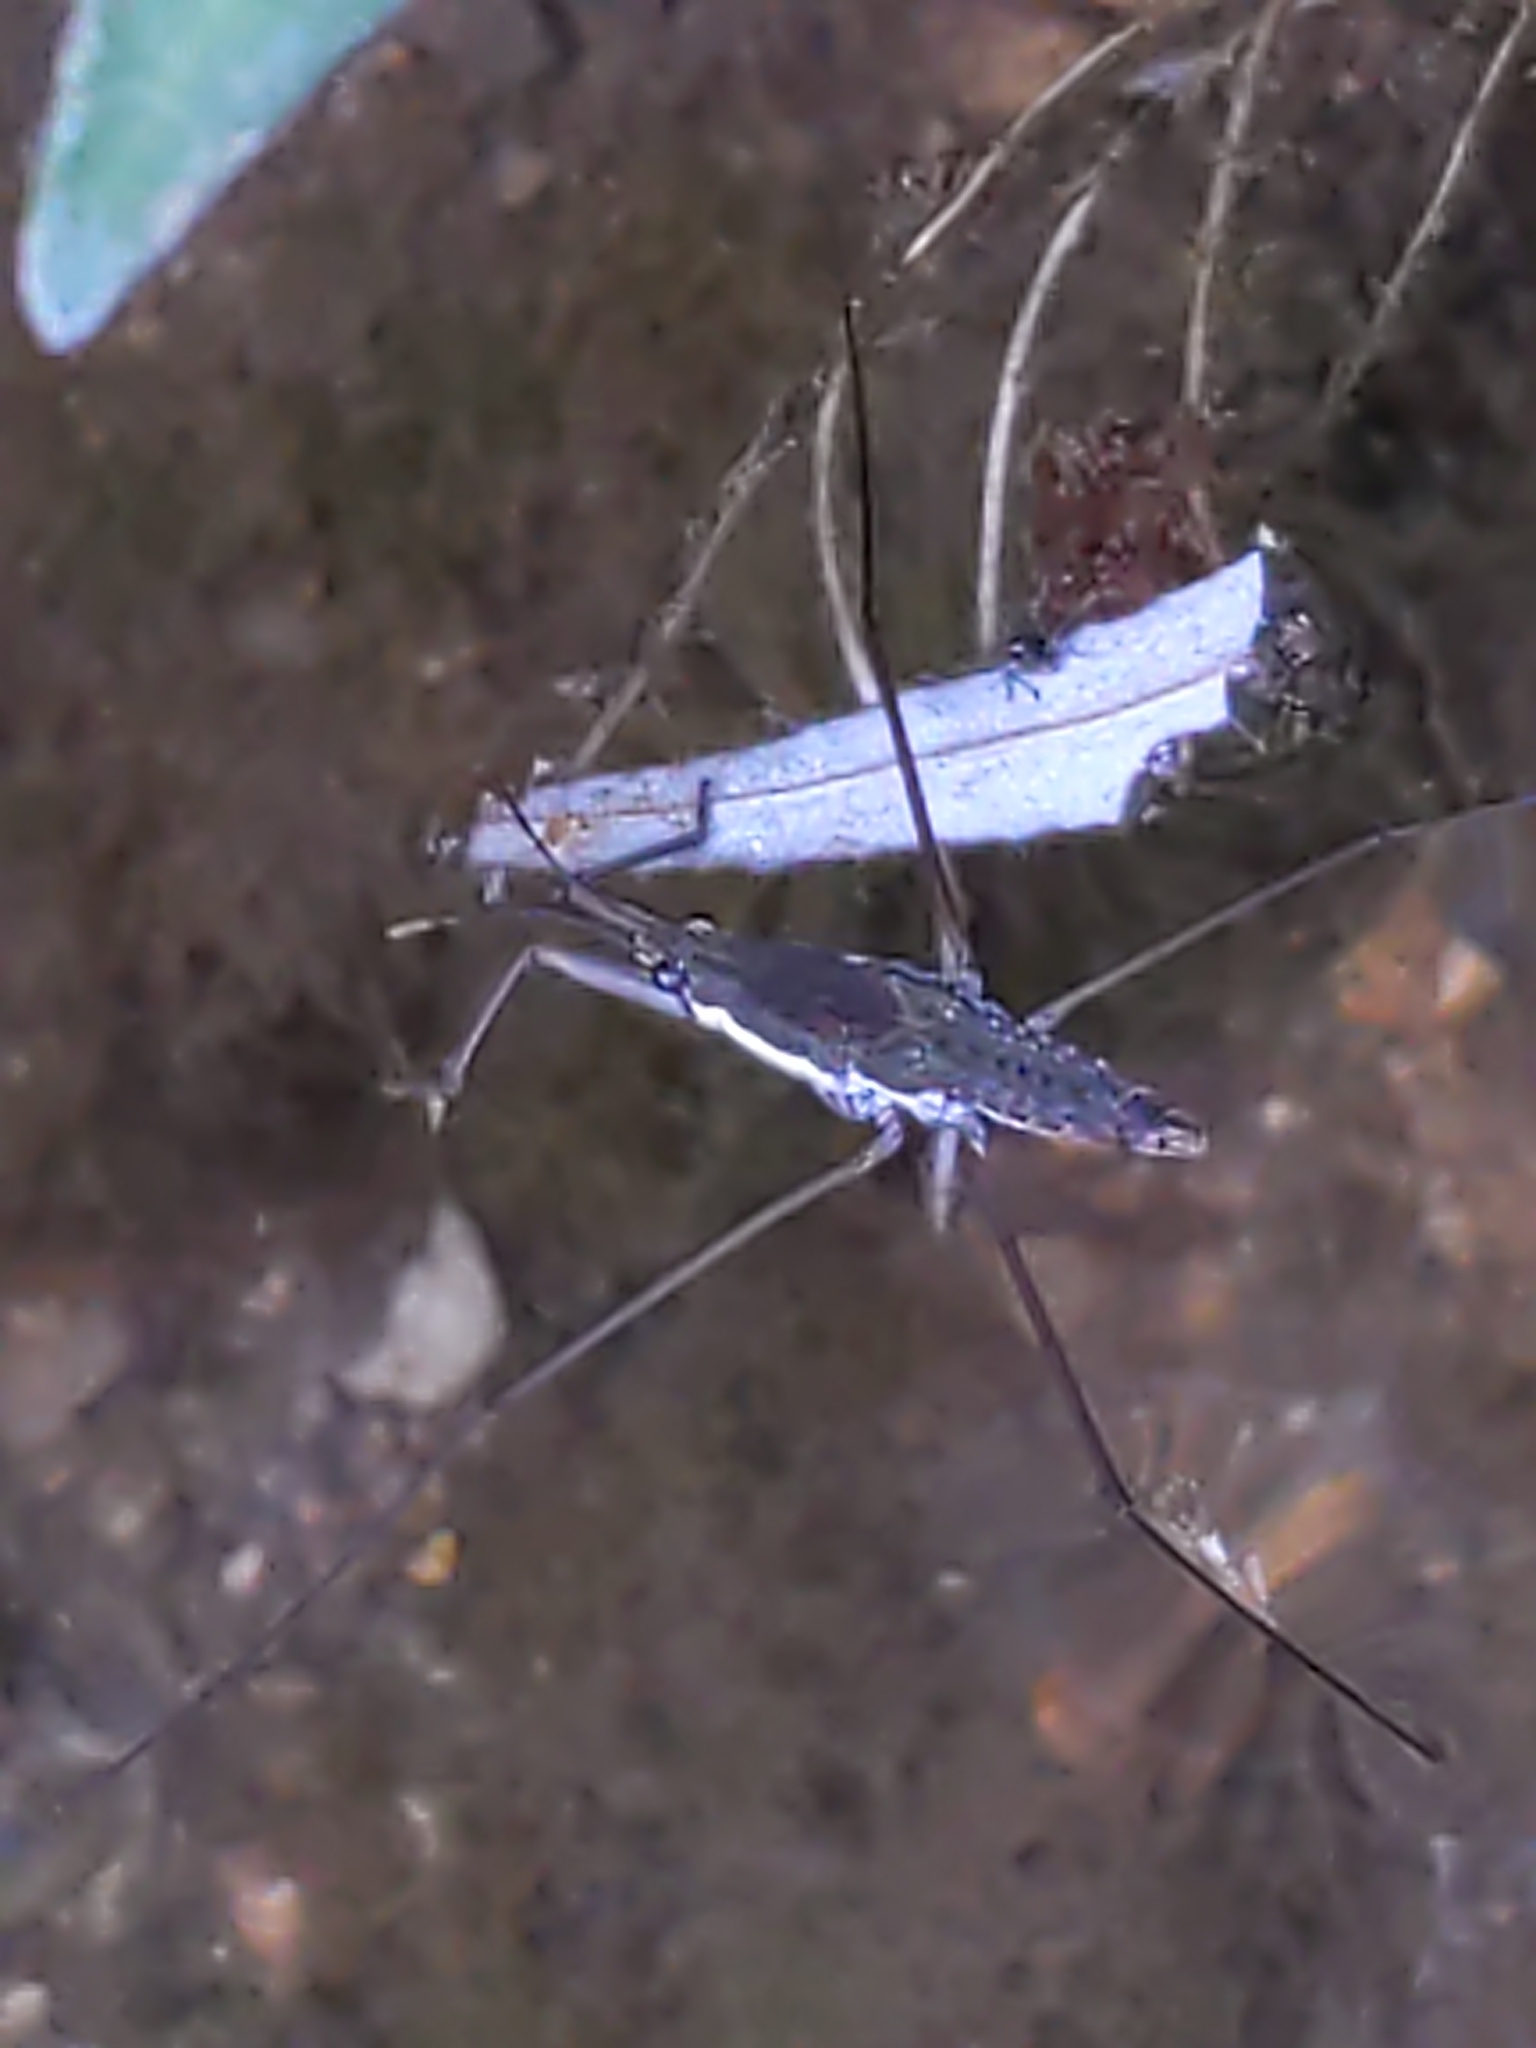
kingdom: Animalia
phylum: Arthropoda
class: Insecta
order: Hemiptera
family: Gerridae
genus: Aquarius
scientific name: Aquarius
